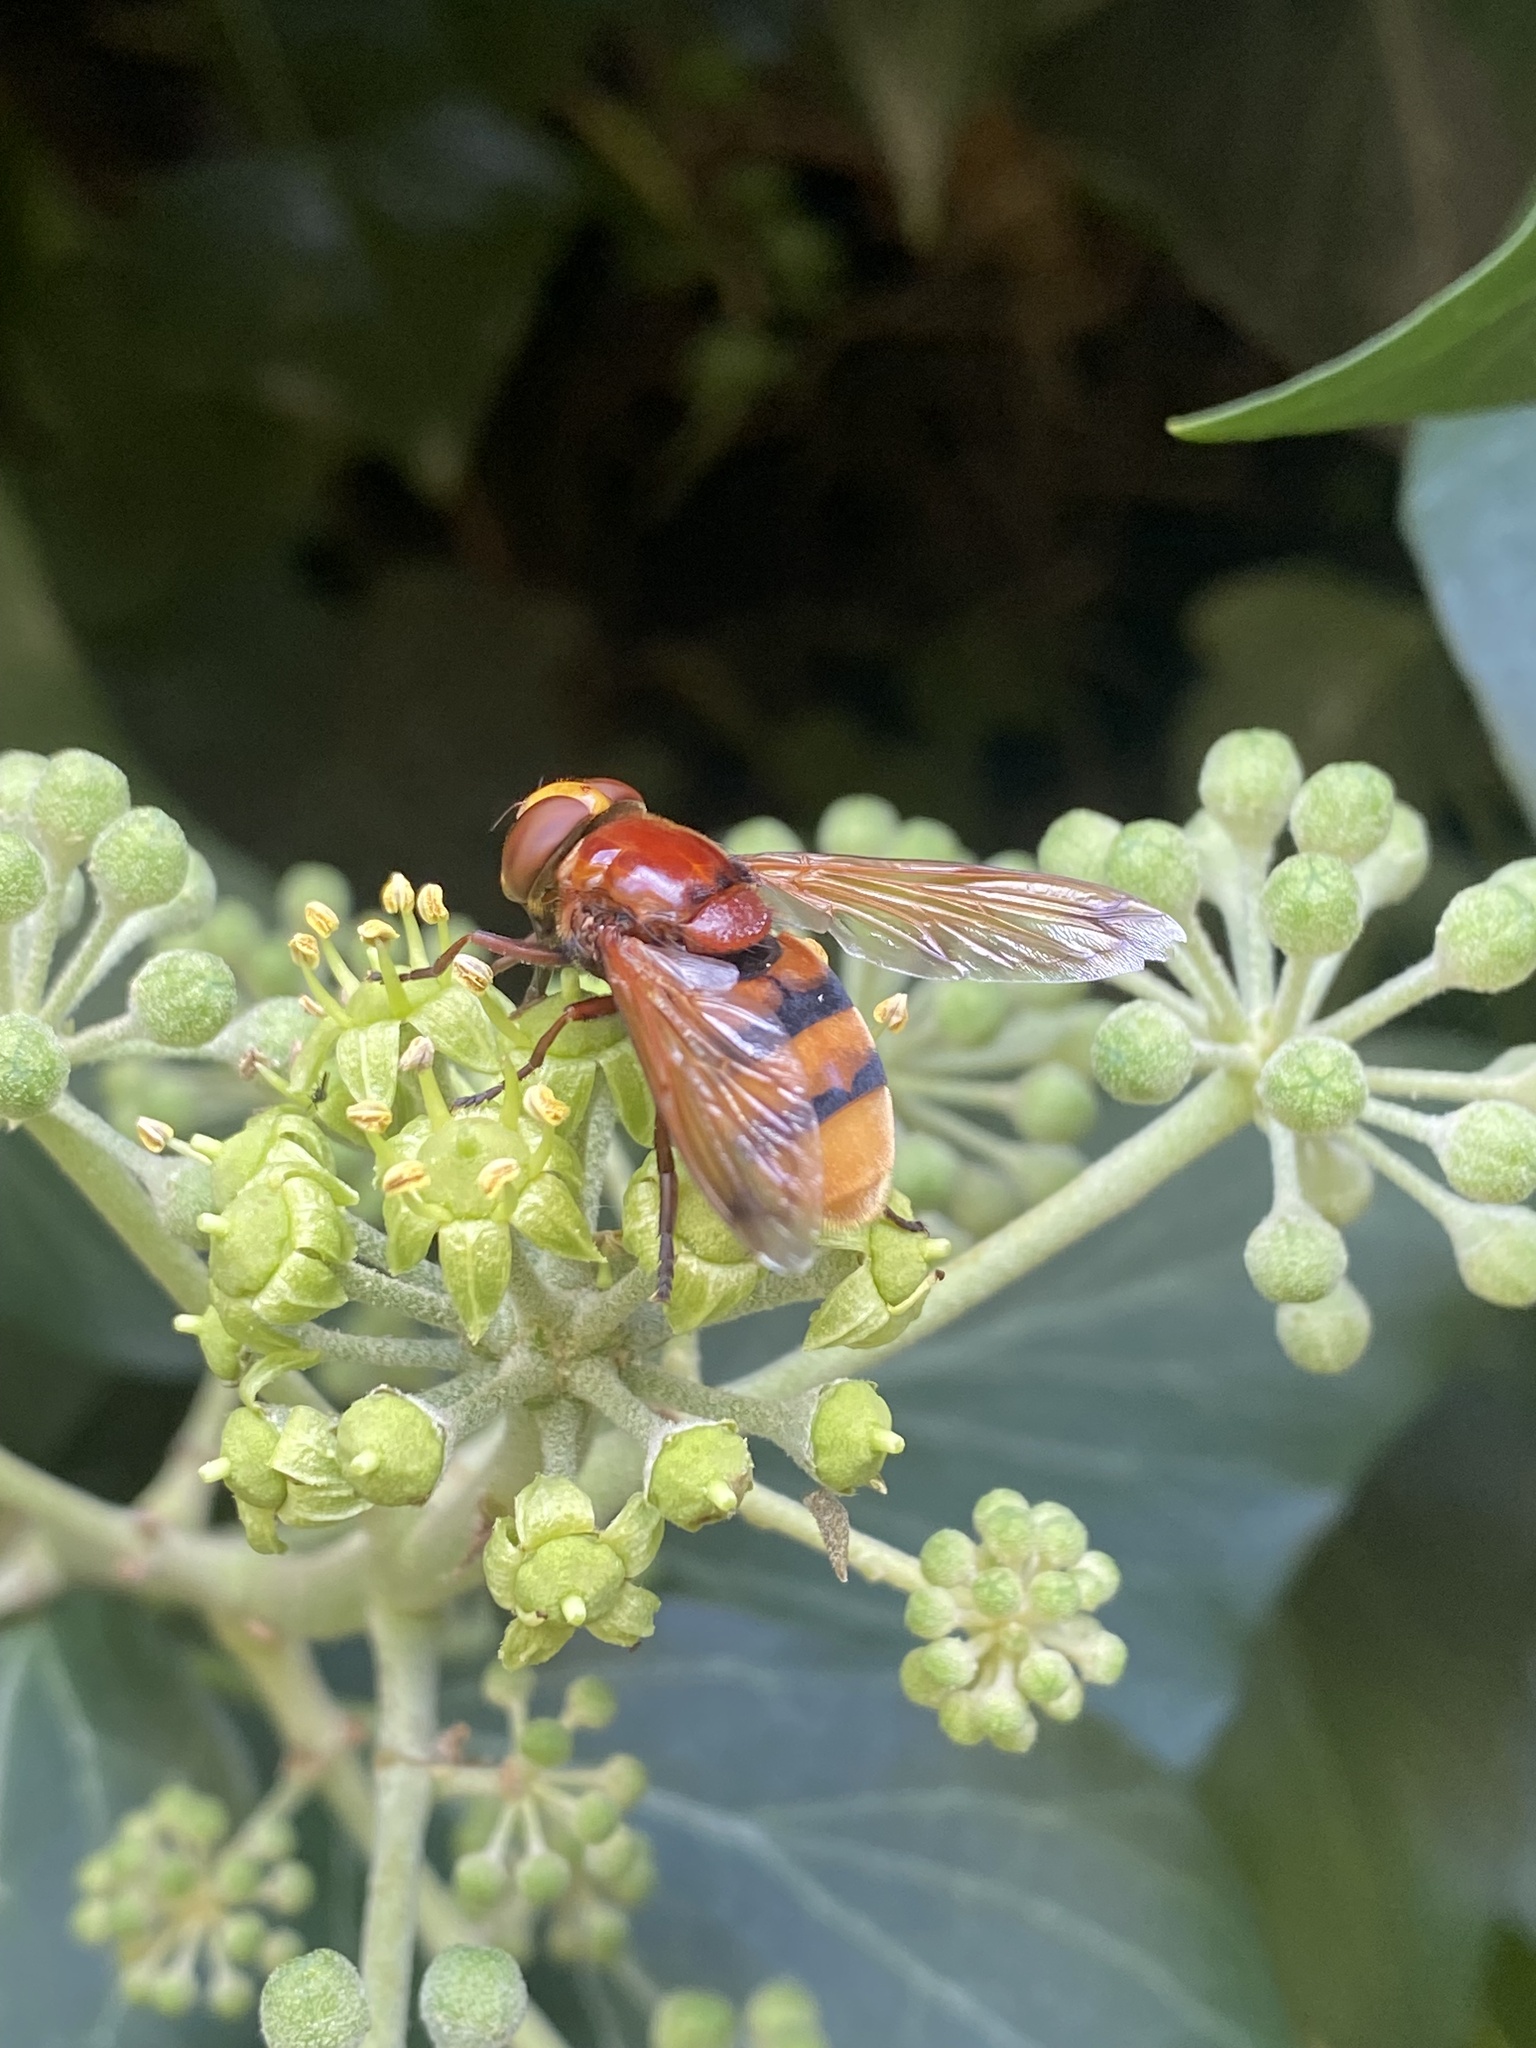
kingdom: Animalia
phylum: Arthropoda
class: Insecta
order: Diptera
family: Syrphidae
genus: Volucella
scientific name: Volucella zonaria
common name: Hornet hoverfly
